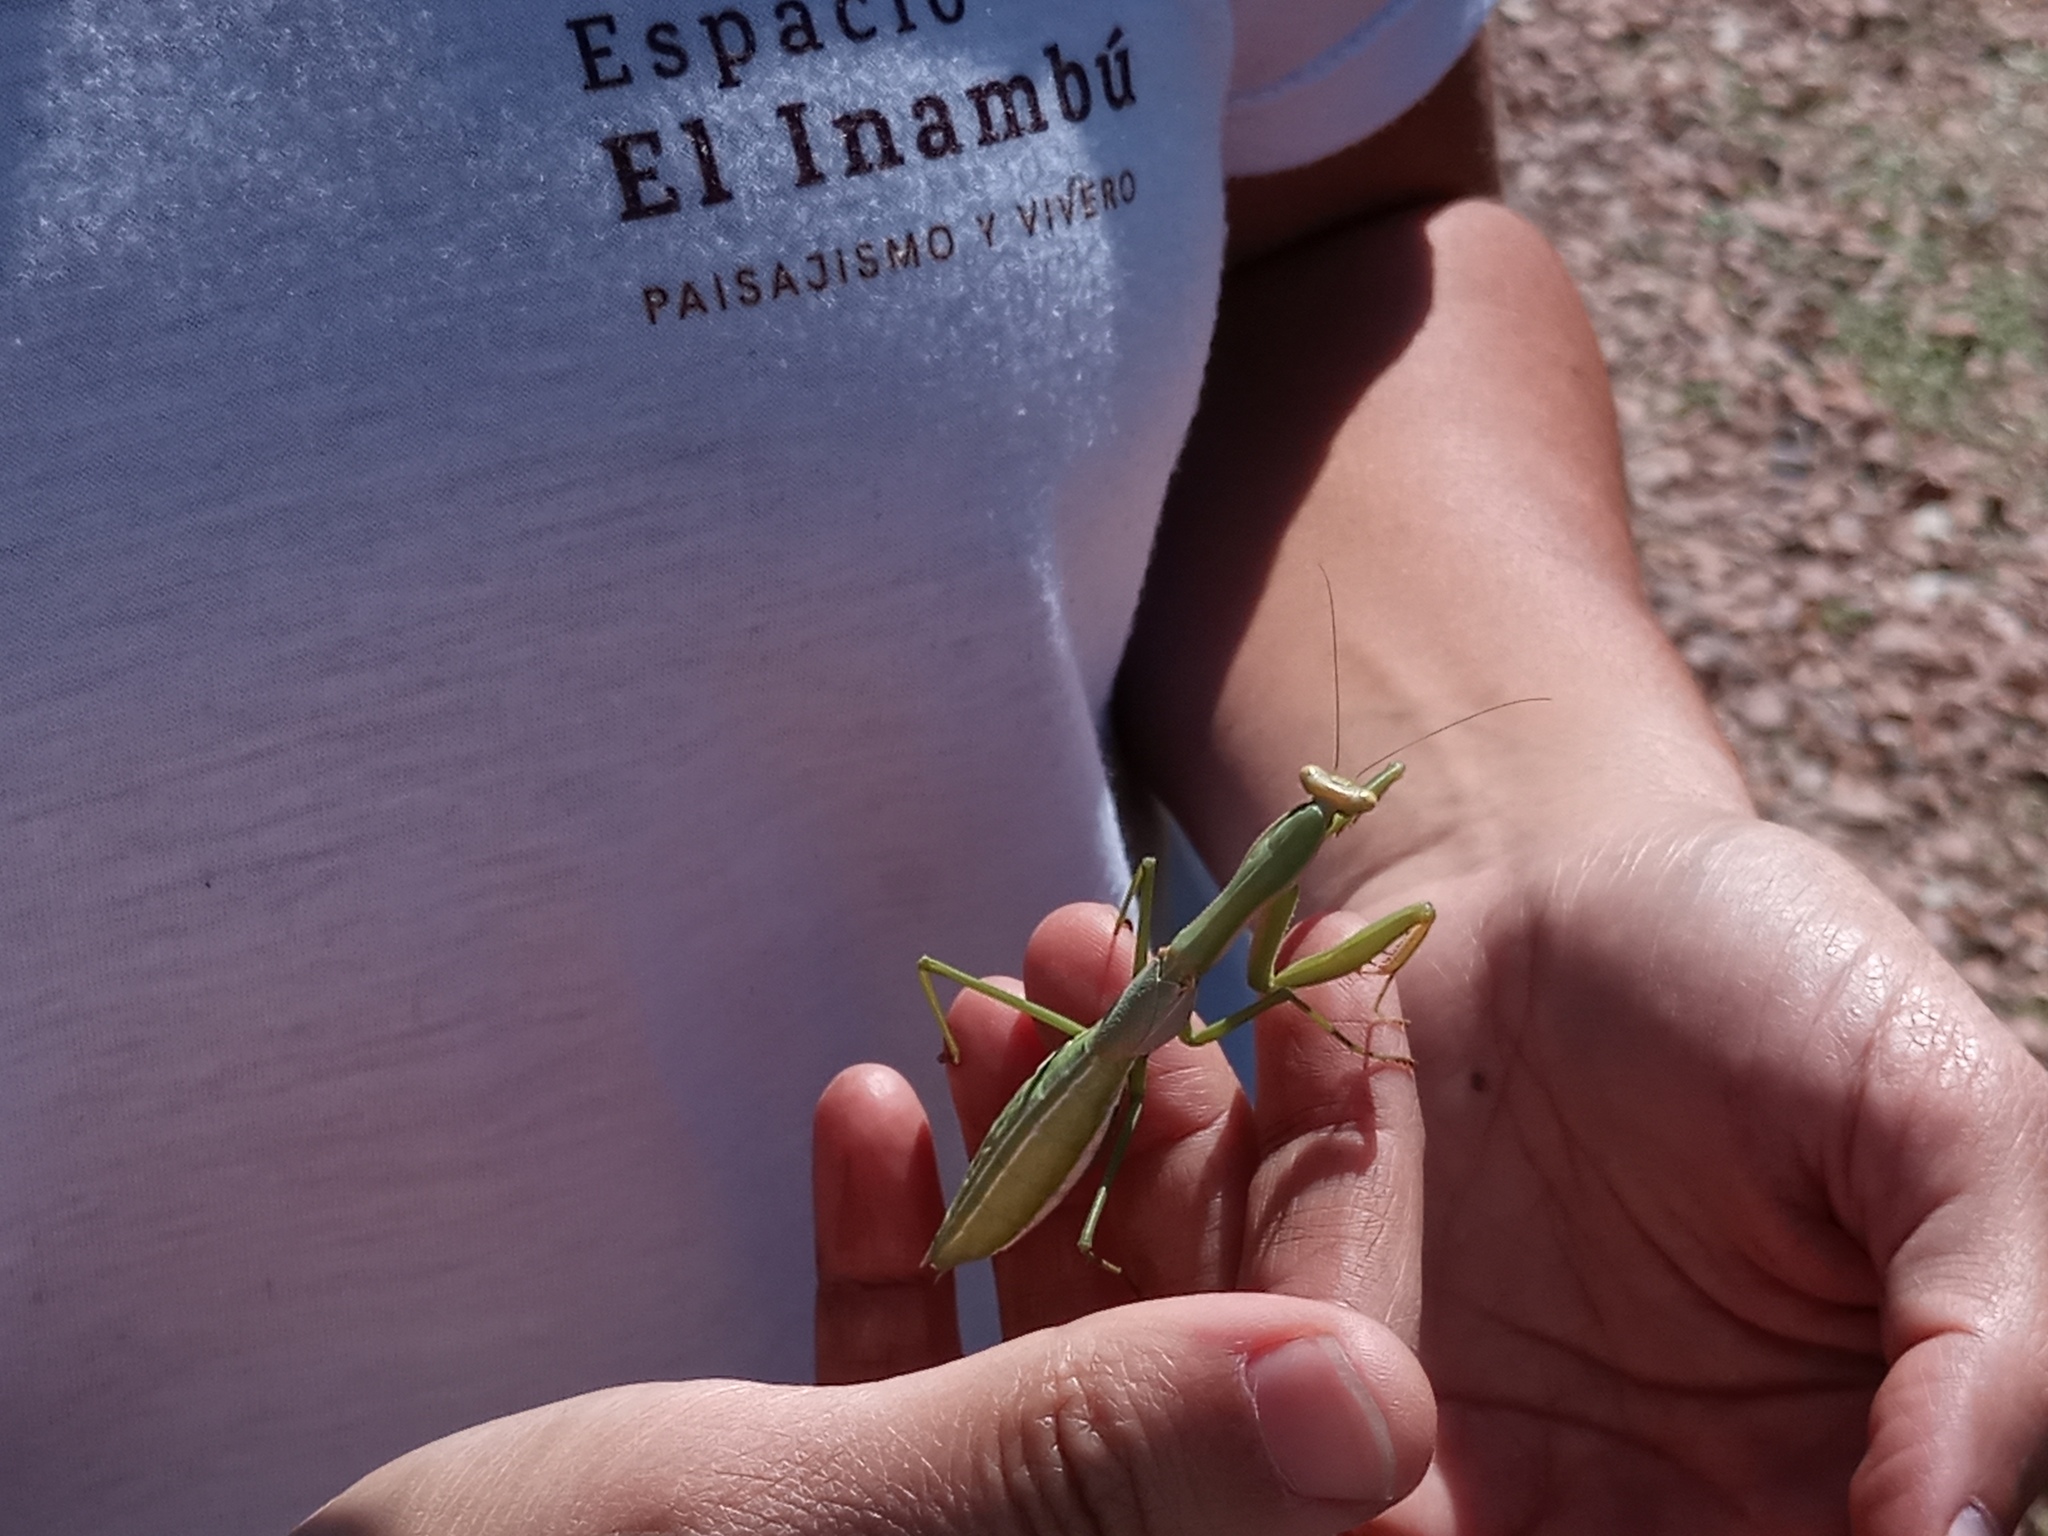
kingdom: Animalia
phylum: Arthropoda
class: Insecta
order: Mantodea
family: Coptopterygidae
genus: Coptopteryx
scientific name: Coptopteryx argentina
